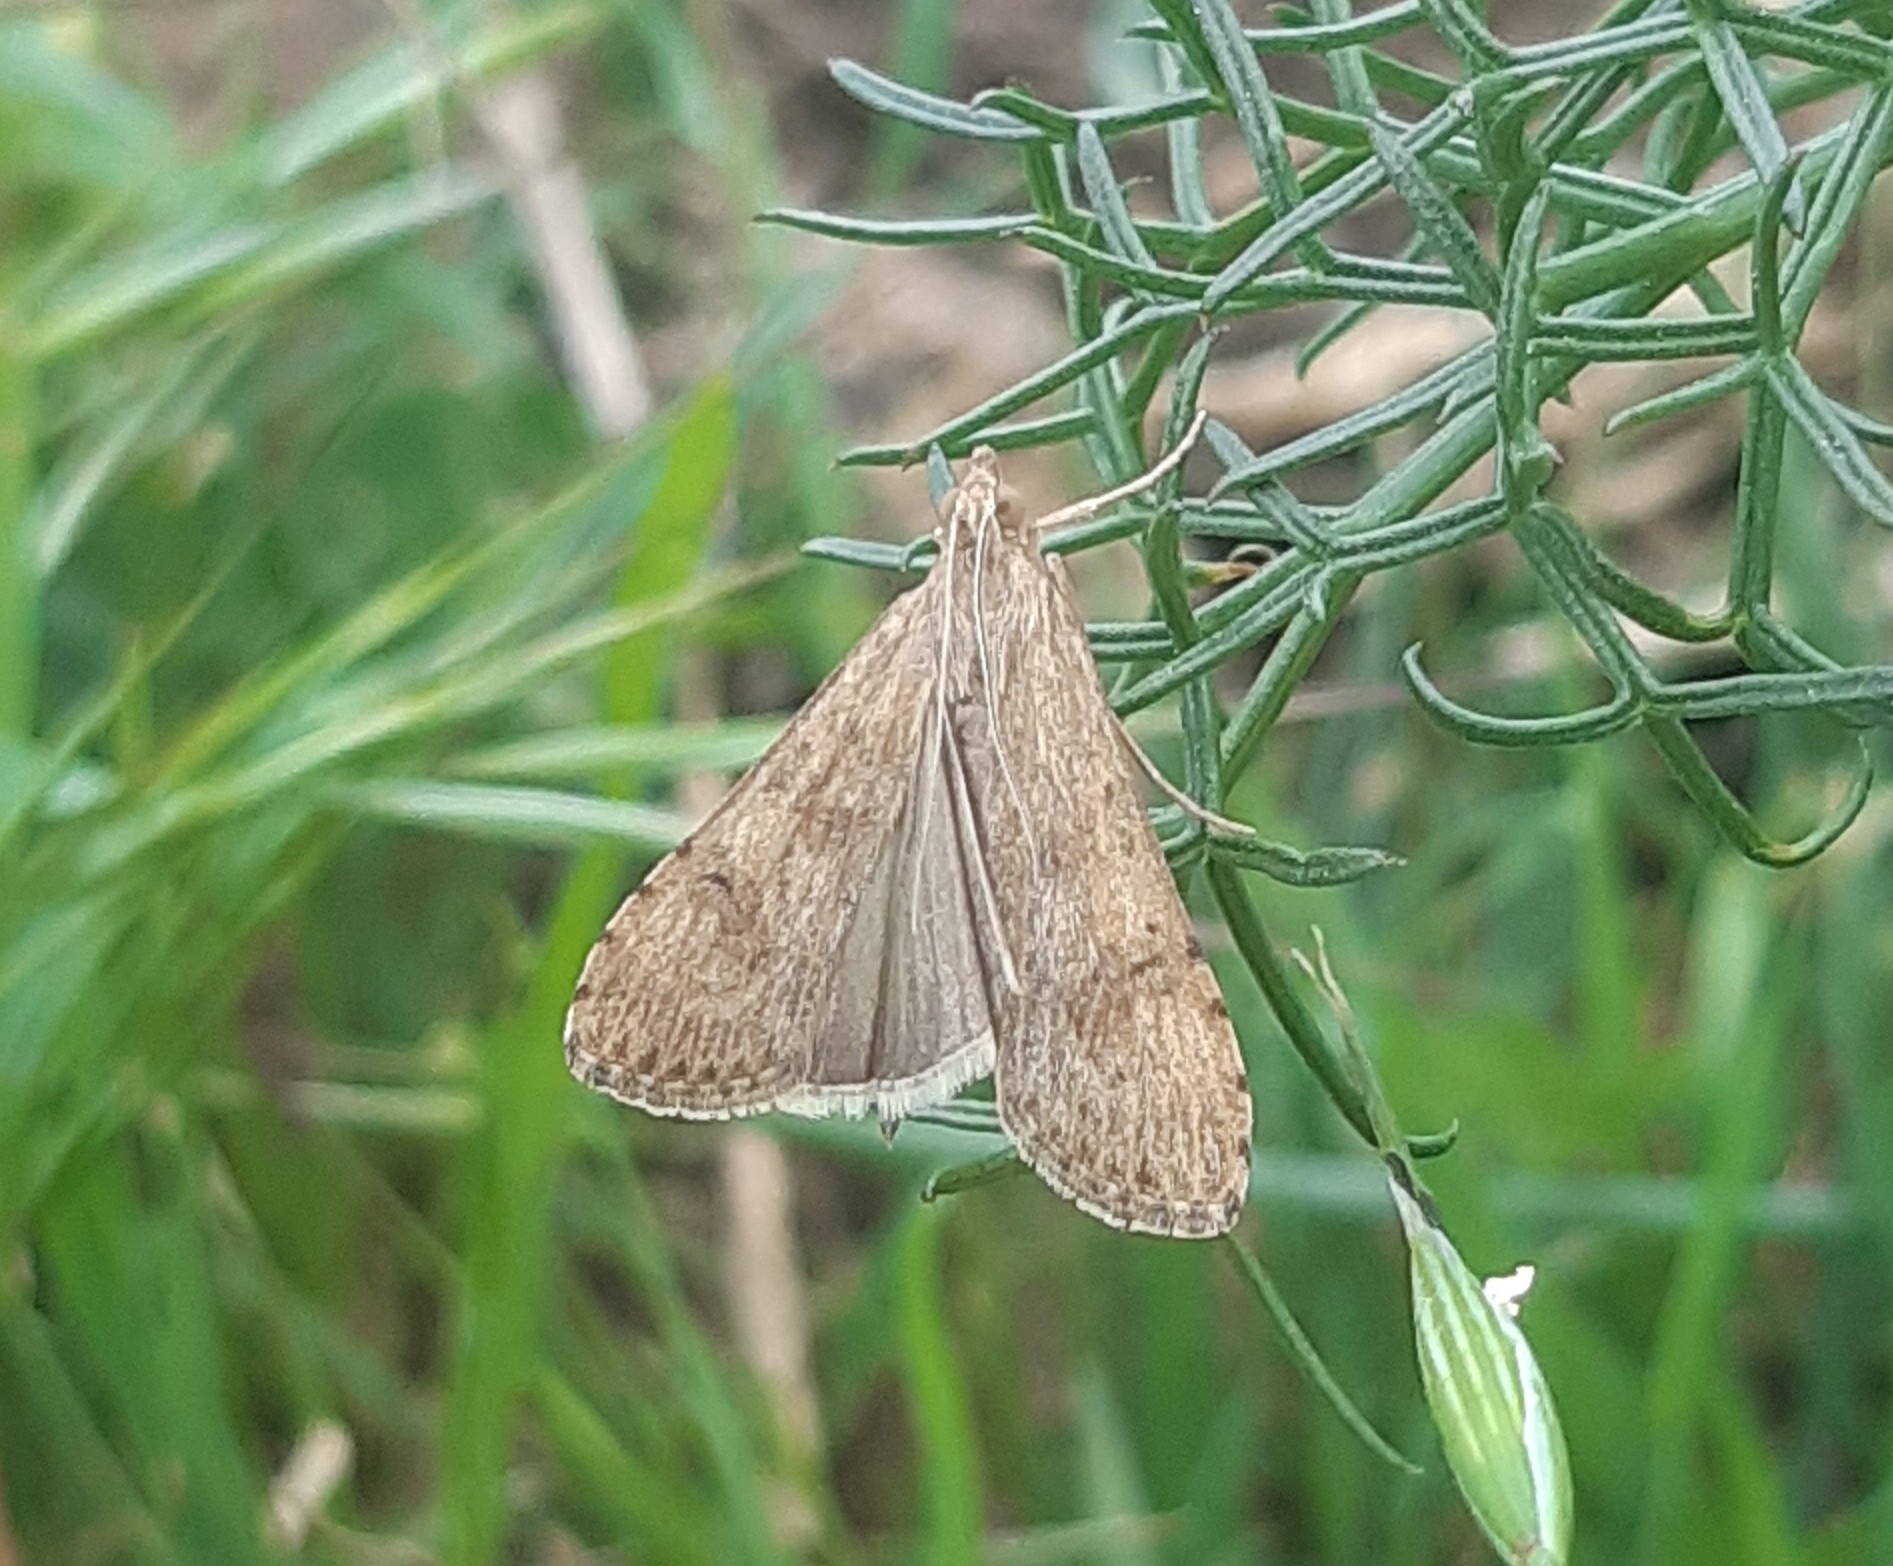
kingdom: Animalia
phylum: Arthropoda
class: Insecta
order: Lepidoptera
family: Crambidae
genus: Nomophila
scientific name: Nomophila noctuella
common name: Rush veneer
